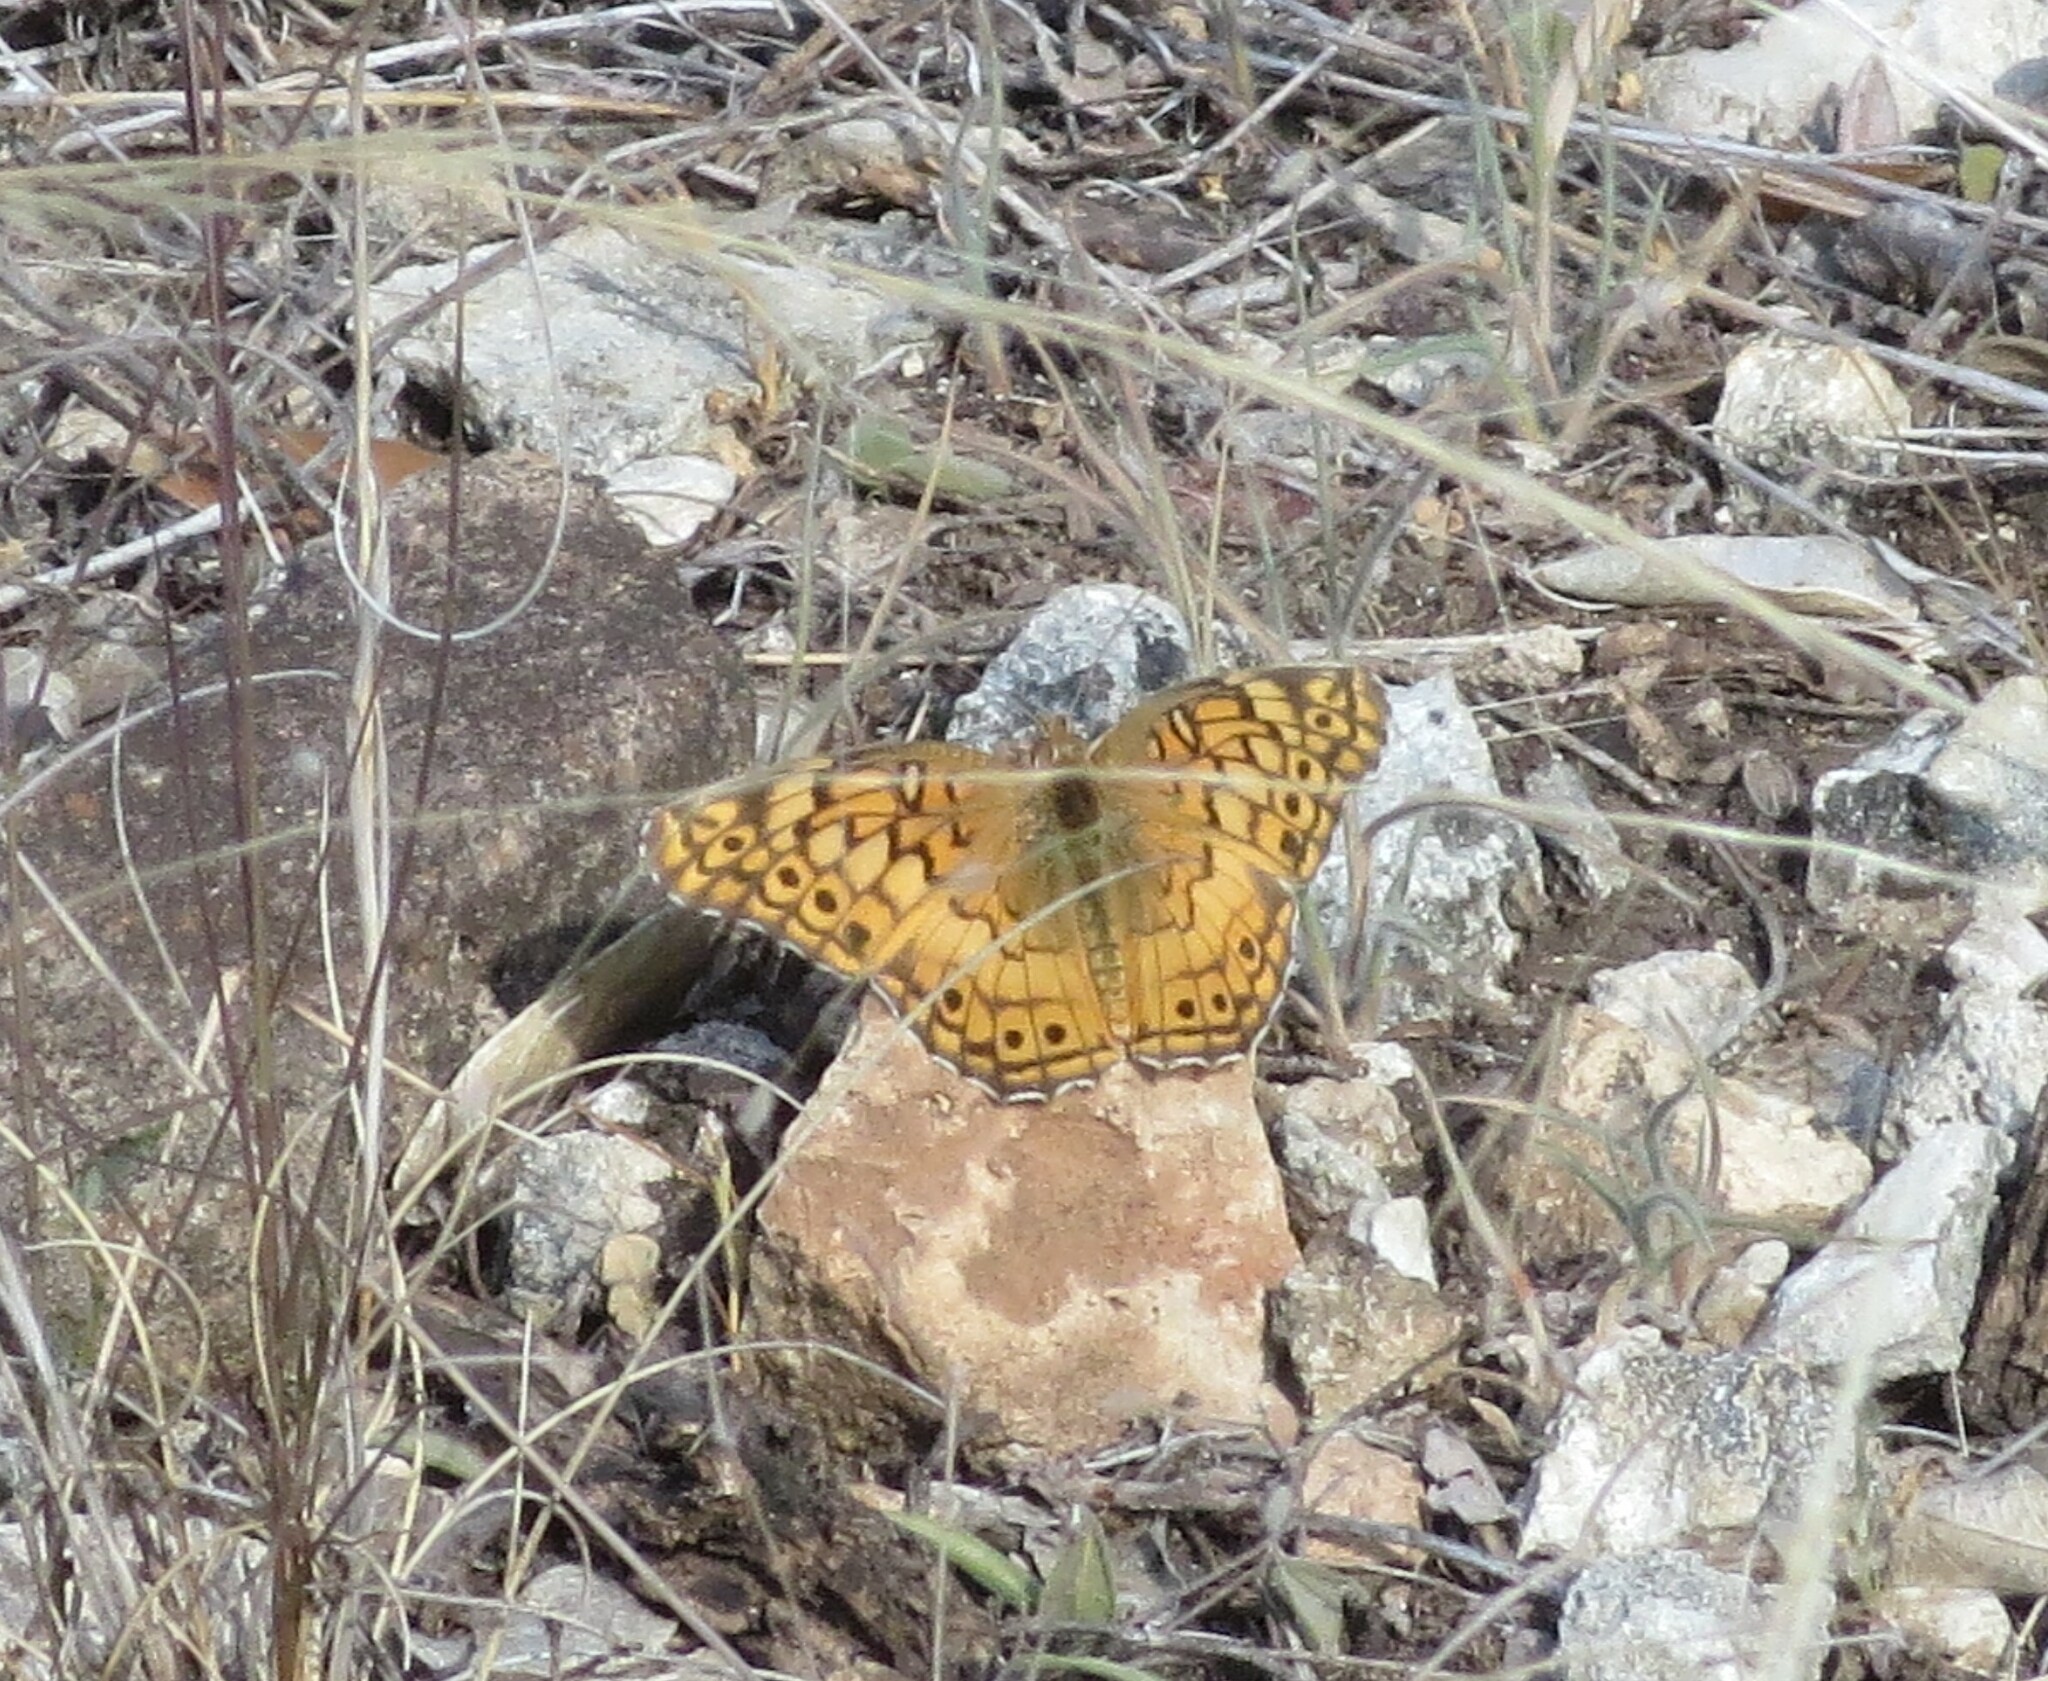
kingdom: Animalia
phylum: Arthropoda
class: Insecta
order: Lepidoptera
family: Nymphalidae
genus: Euptoieta
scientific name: Euptoieta claudia
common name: Variegated fritillary
